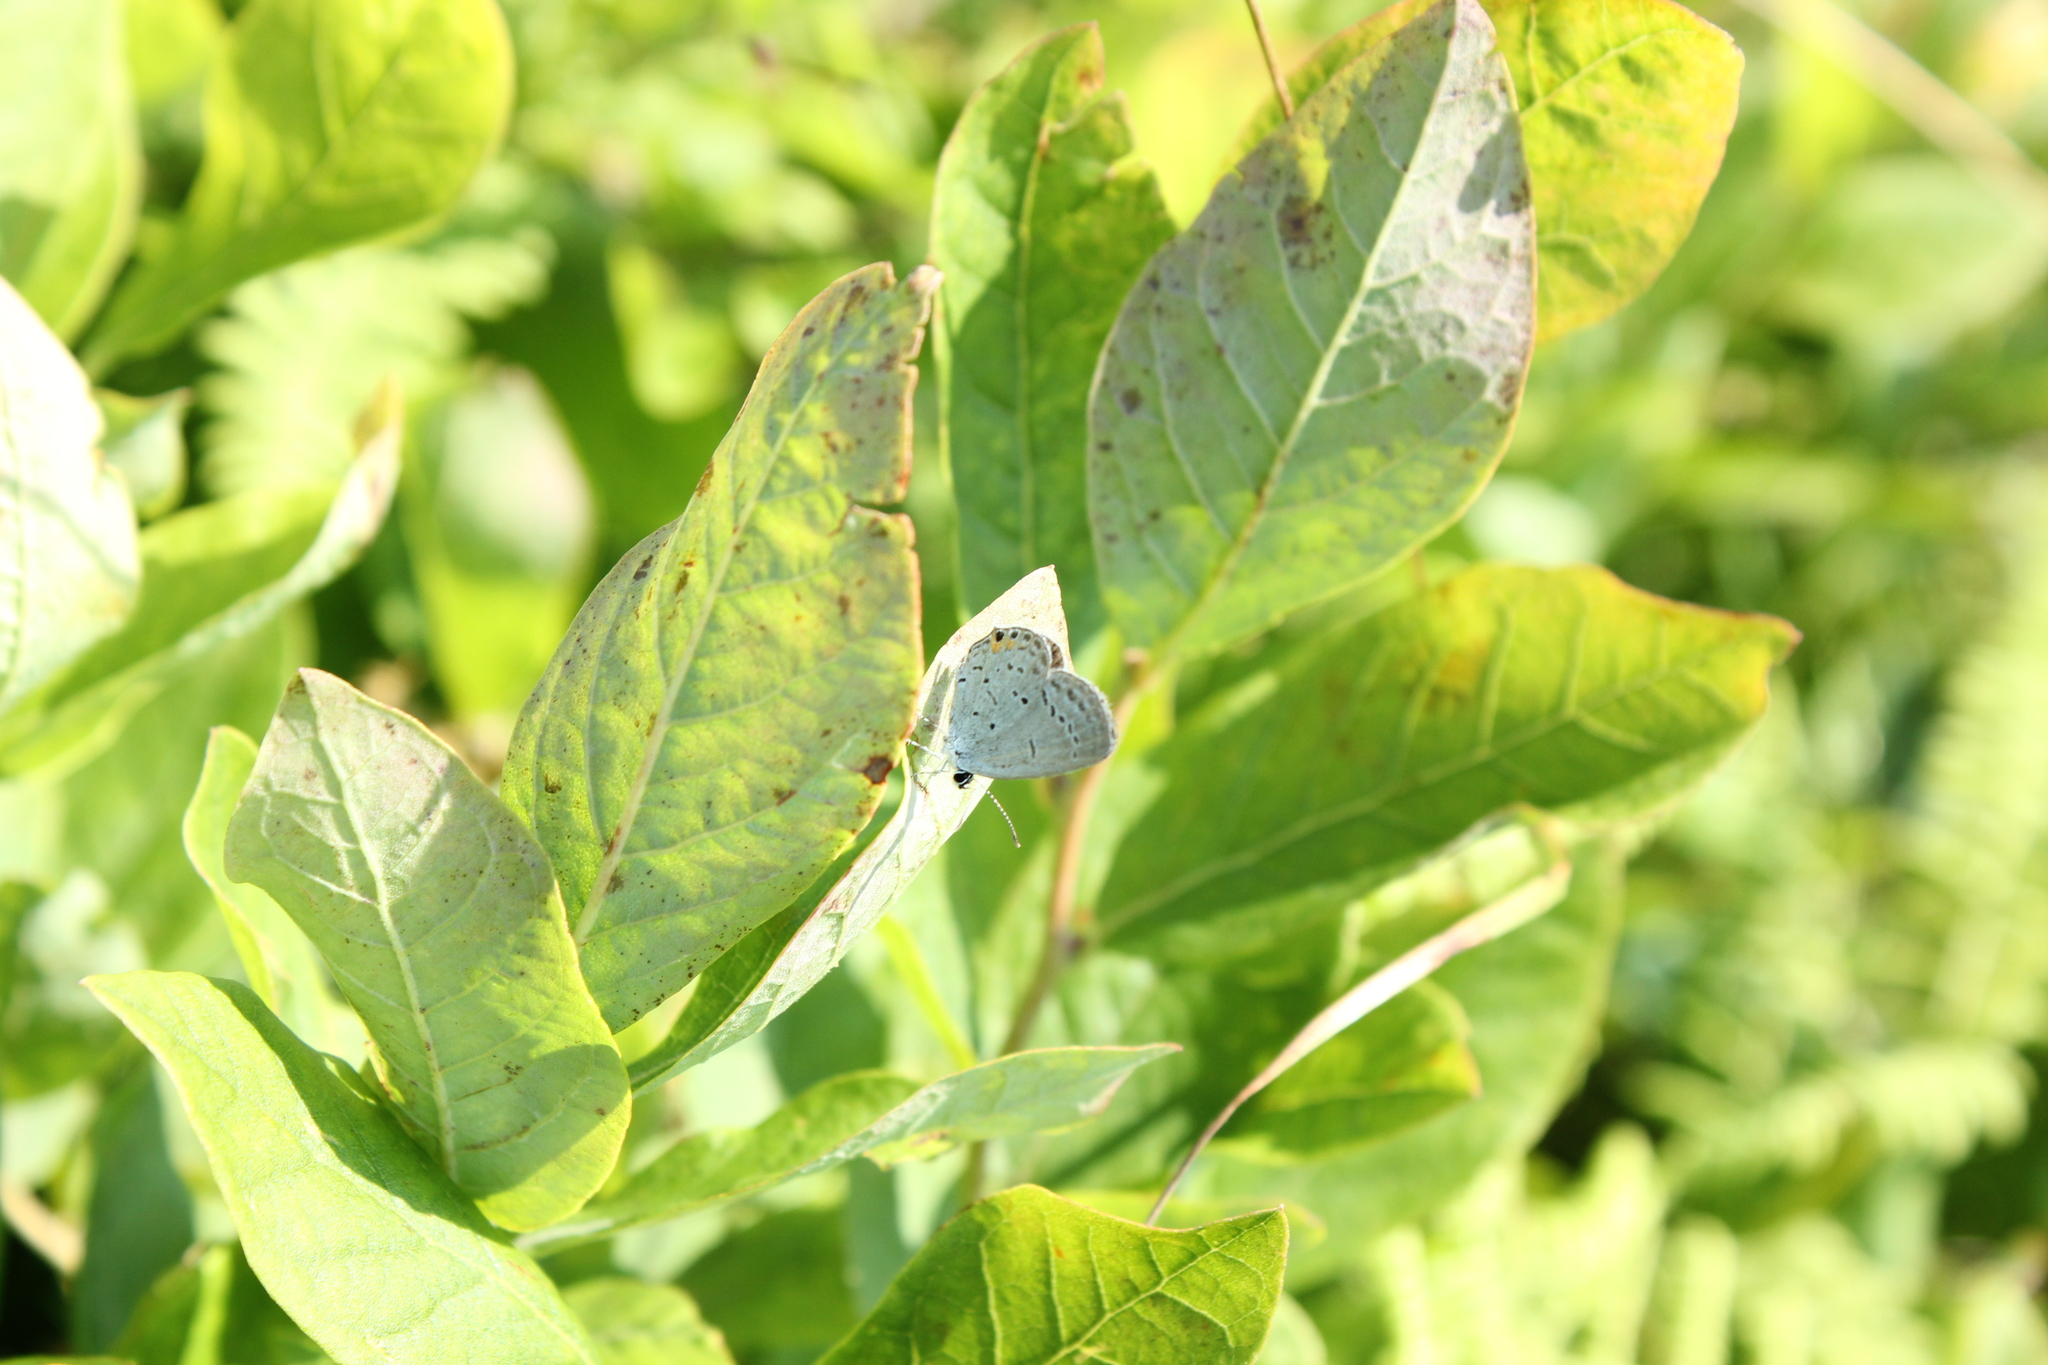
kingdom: Animalia
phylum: Arthropoda
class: Insecta
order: Lepidoptera
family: Lycaenidae
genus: Elkalyce
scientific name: Elkalyce comyntas
